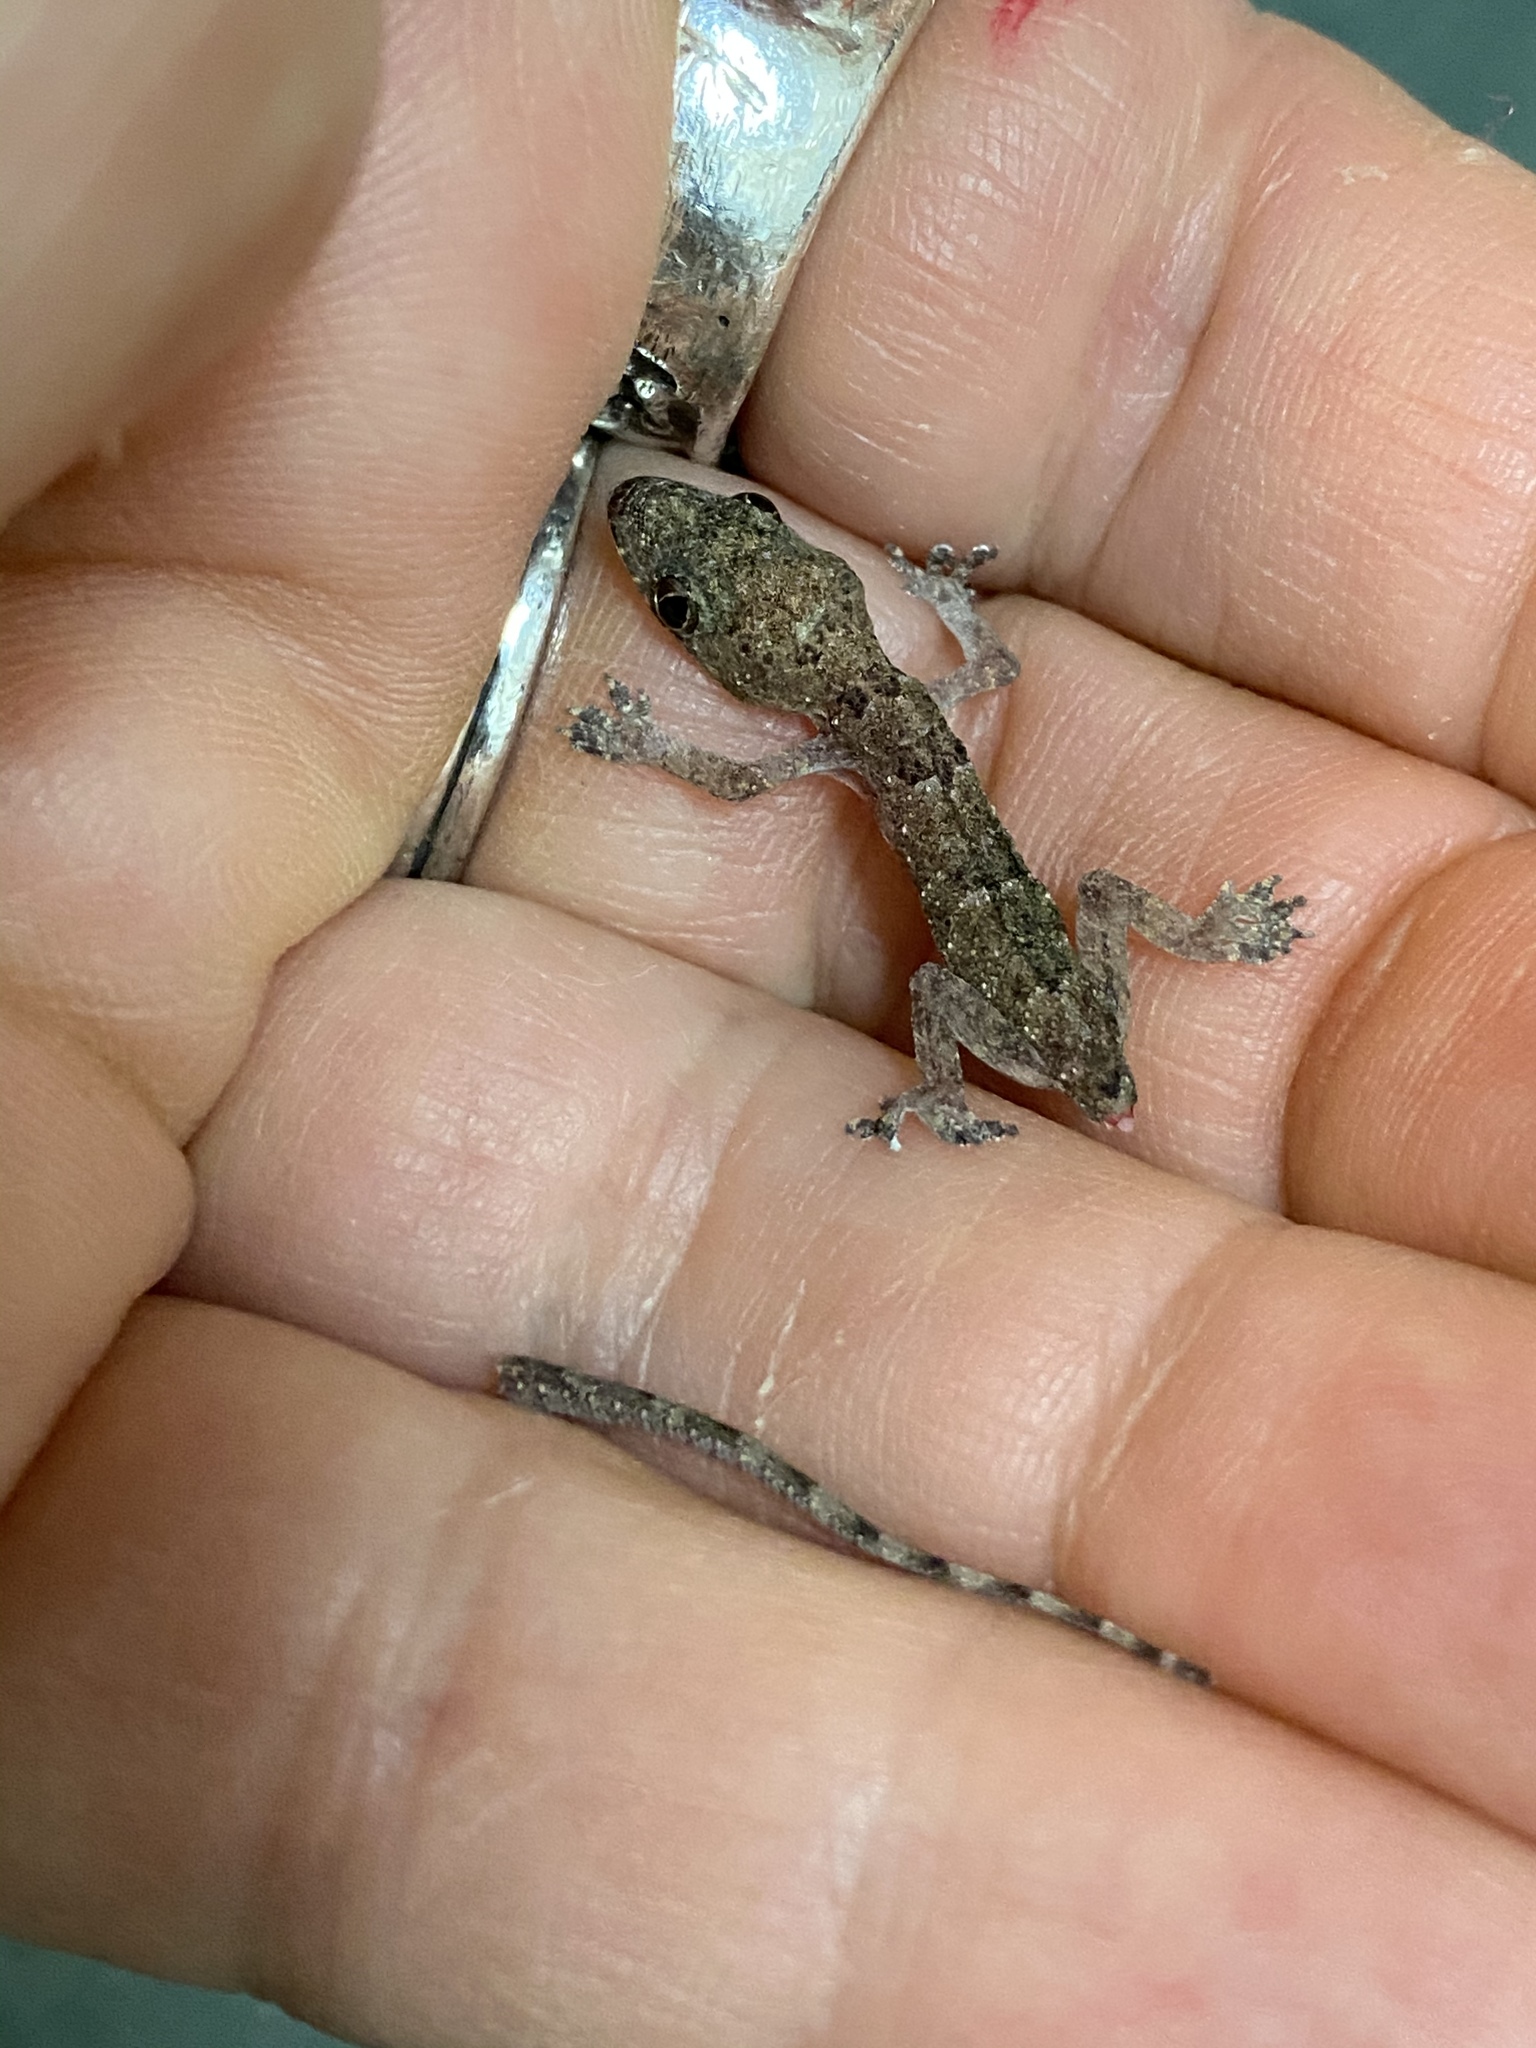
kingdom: Animalia
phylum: Chordata
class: Squamata
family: Gekkonidae
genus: Hemidactylus
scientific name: Hemidactylus mabouia
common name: House gecko
